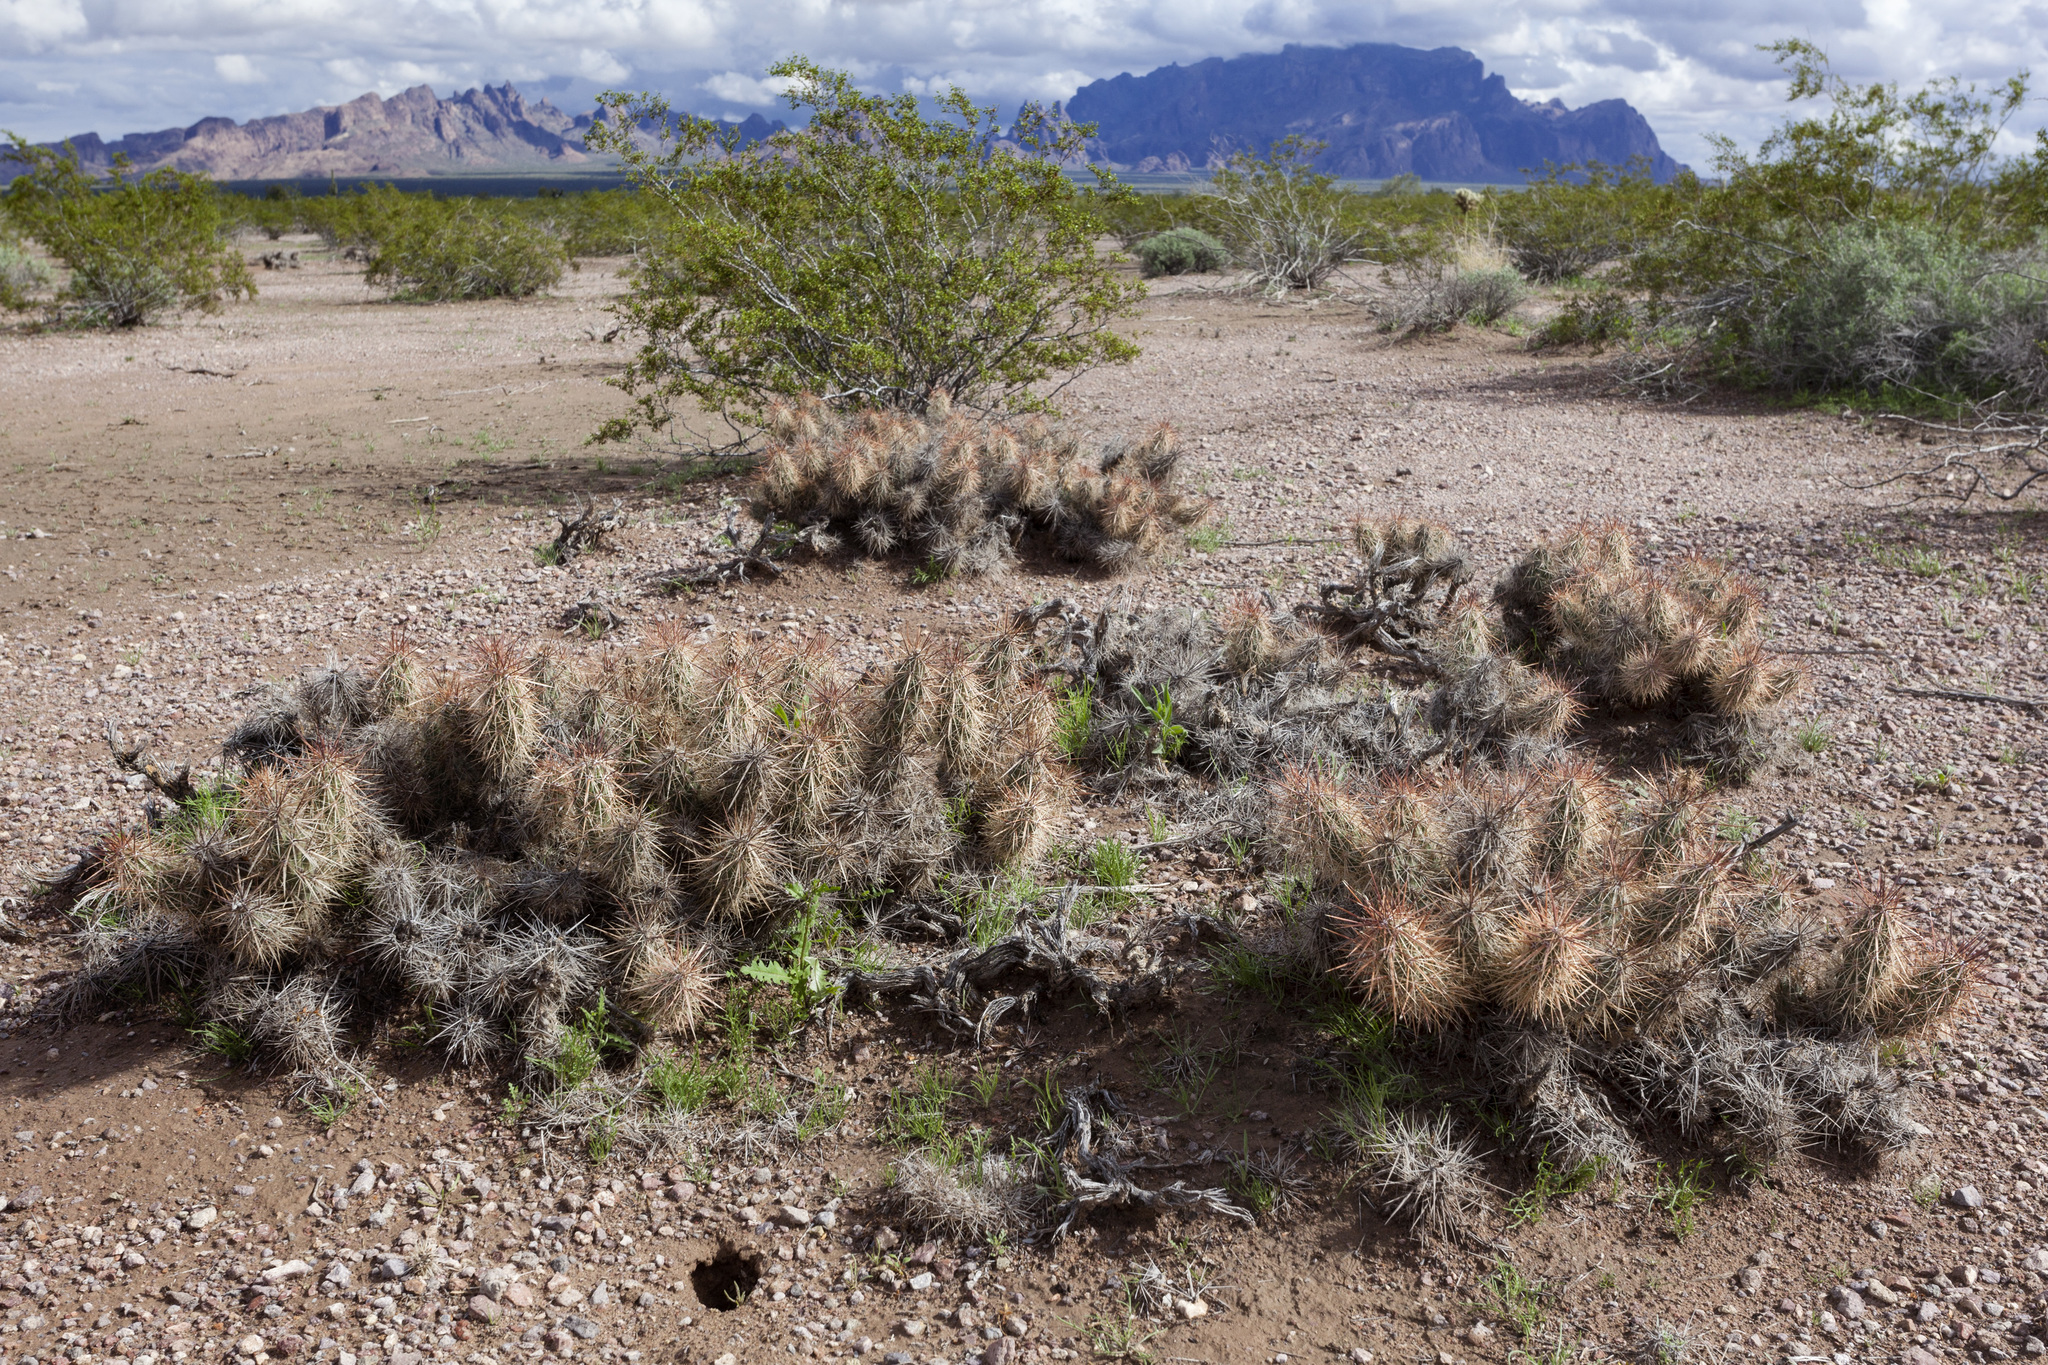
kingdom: Plantae
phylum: Tracheophyta
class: Magnoliopsida
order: Caryophyllales
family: Cactaceae
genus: Grusonia
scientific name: Grusonia kunzei
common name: Wright's club cholla
